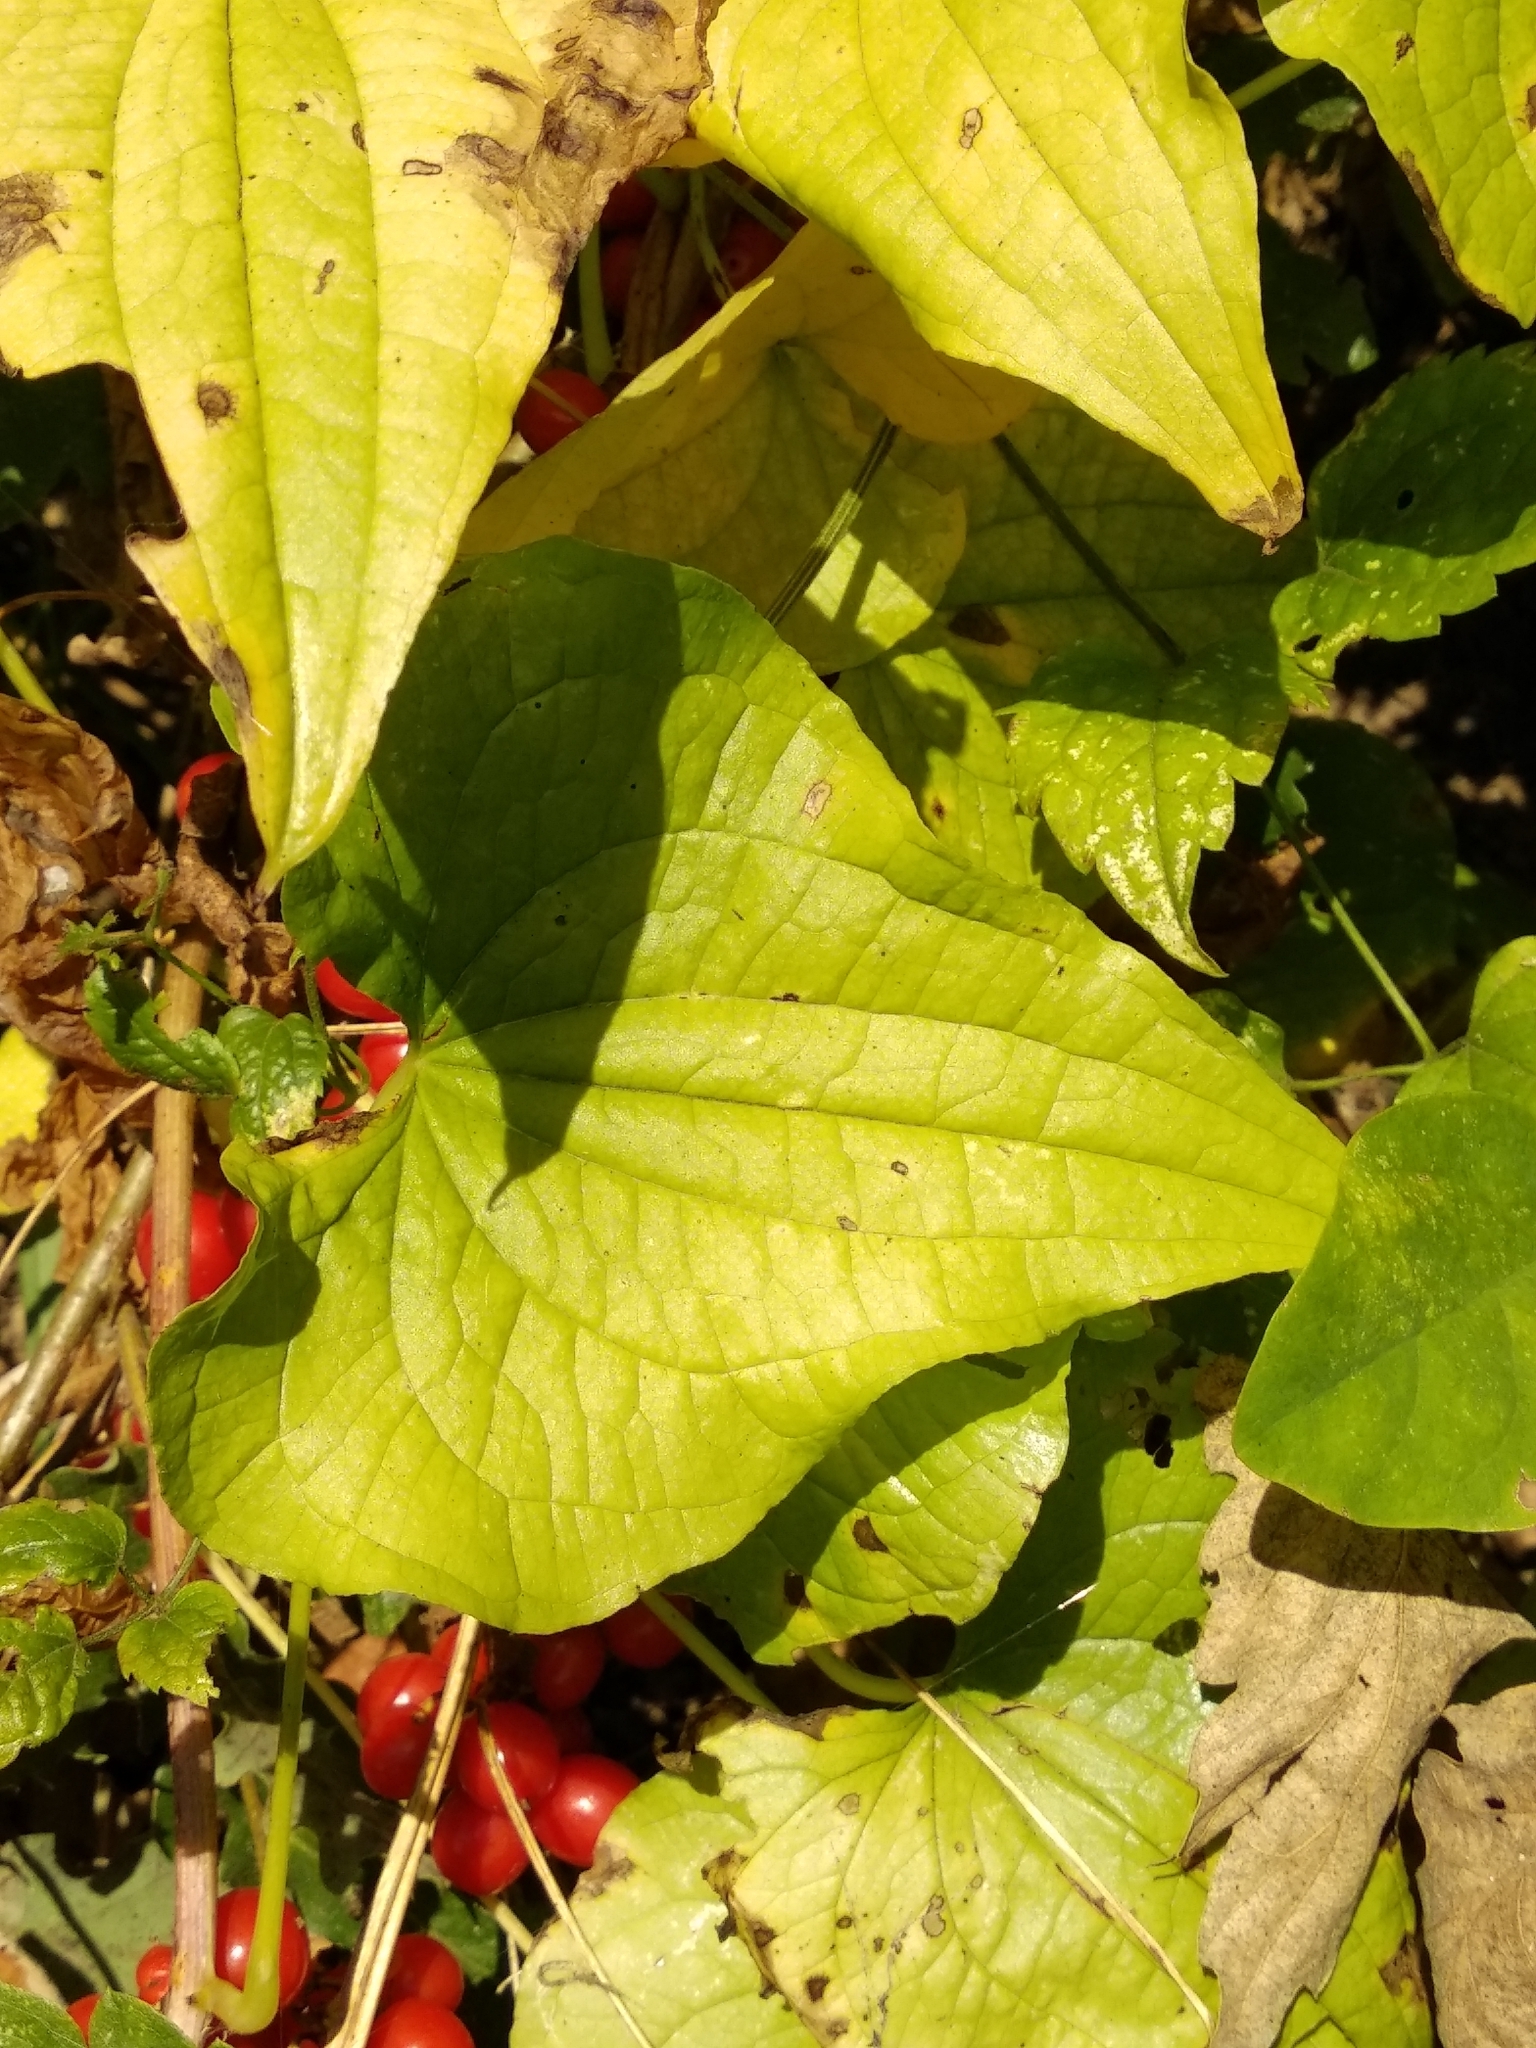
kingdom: Plantae
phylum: Tracheophyta
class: Liliopsida
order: Dioscoreales
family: Dioscoreaceae
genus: Dioscorea
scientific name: Dioscorea communis
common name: Black-bindweed
